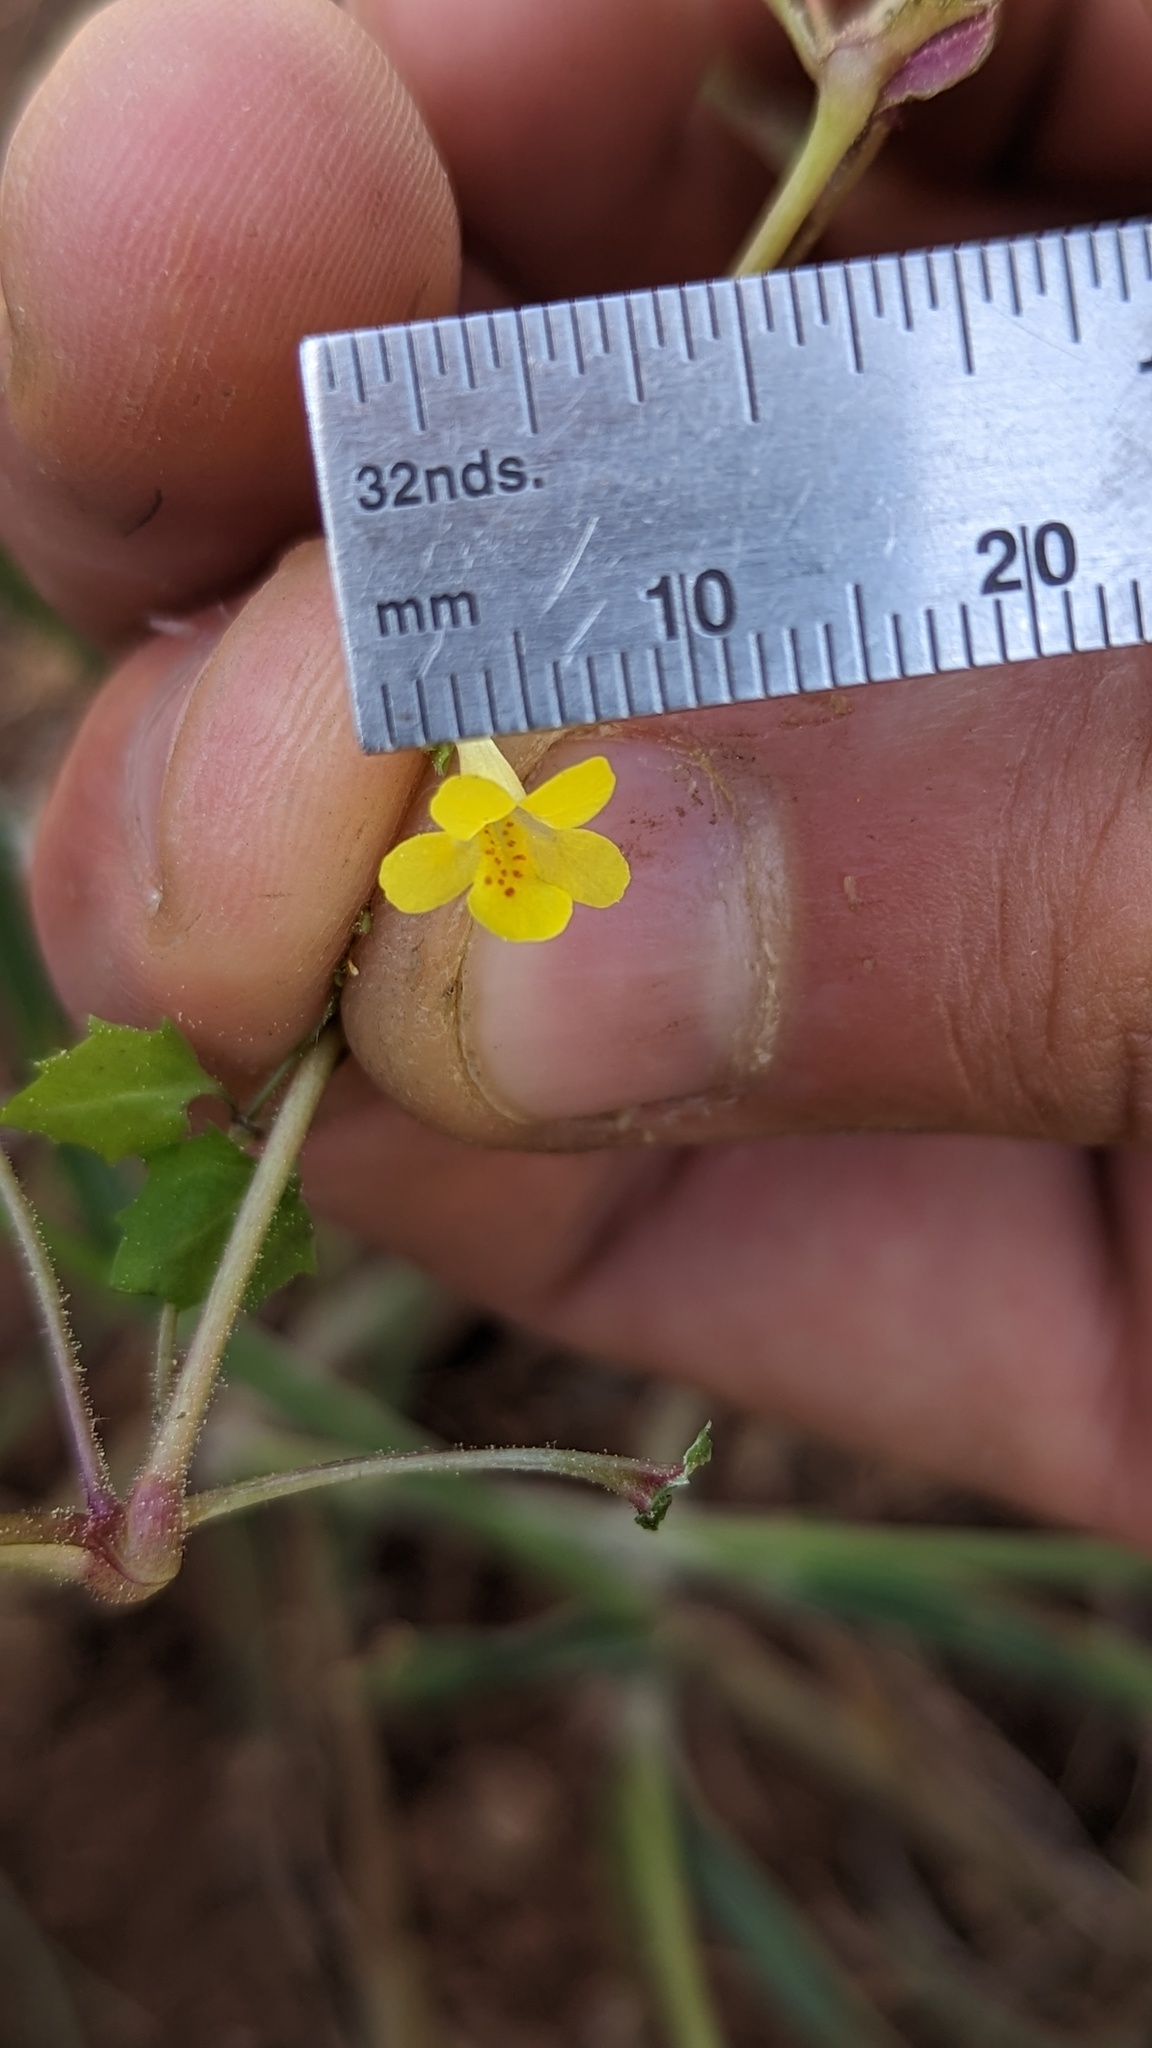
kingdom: Plantae
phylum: Tracheophyta
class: Magnoliopsida
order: Lamiales
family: Phrymaceae
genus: Erythranthe
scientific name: Erythranthe pardalis
